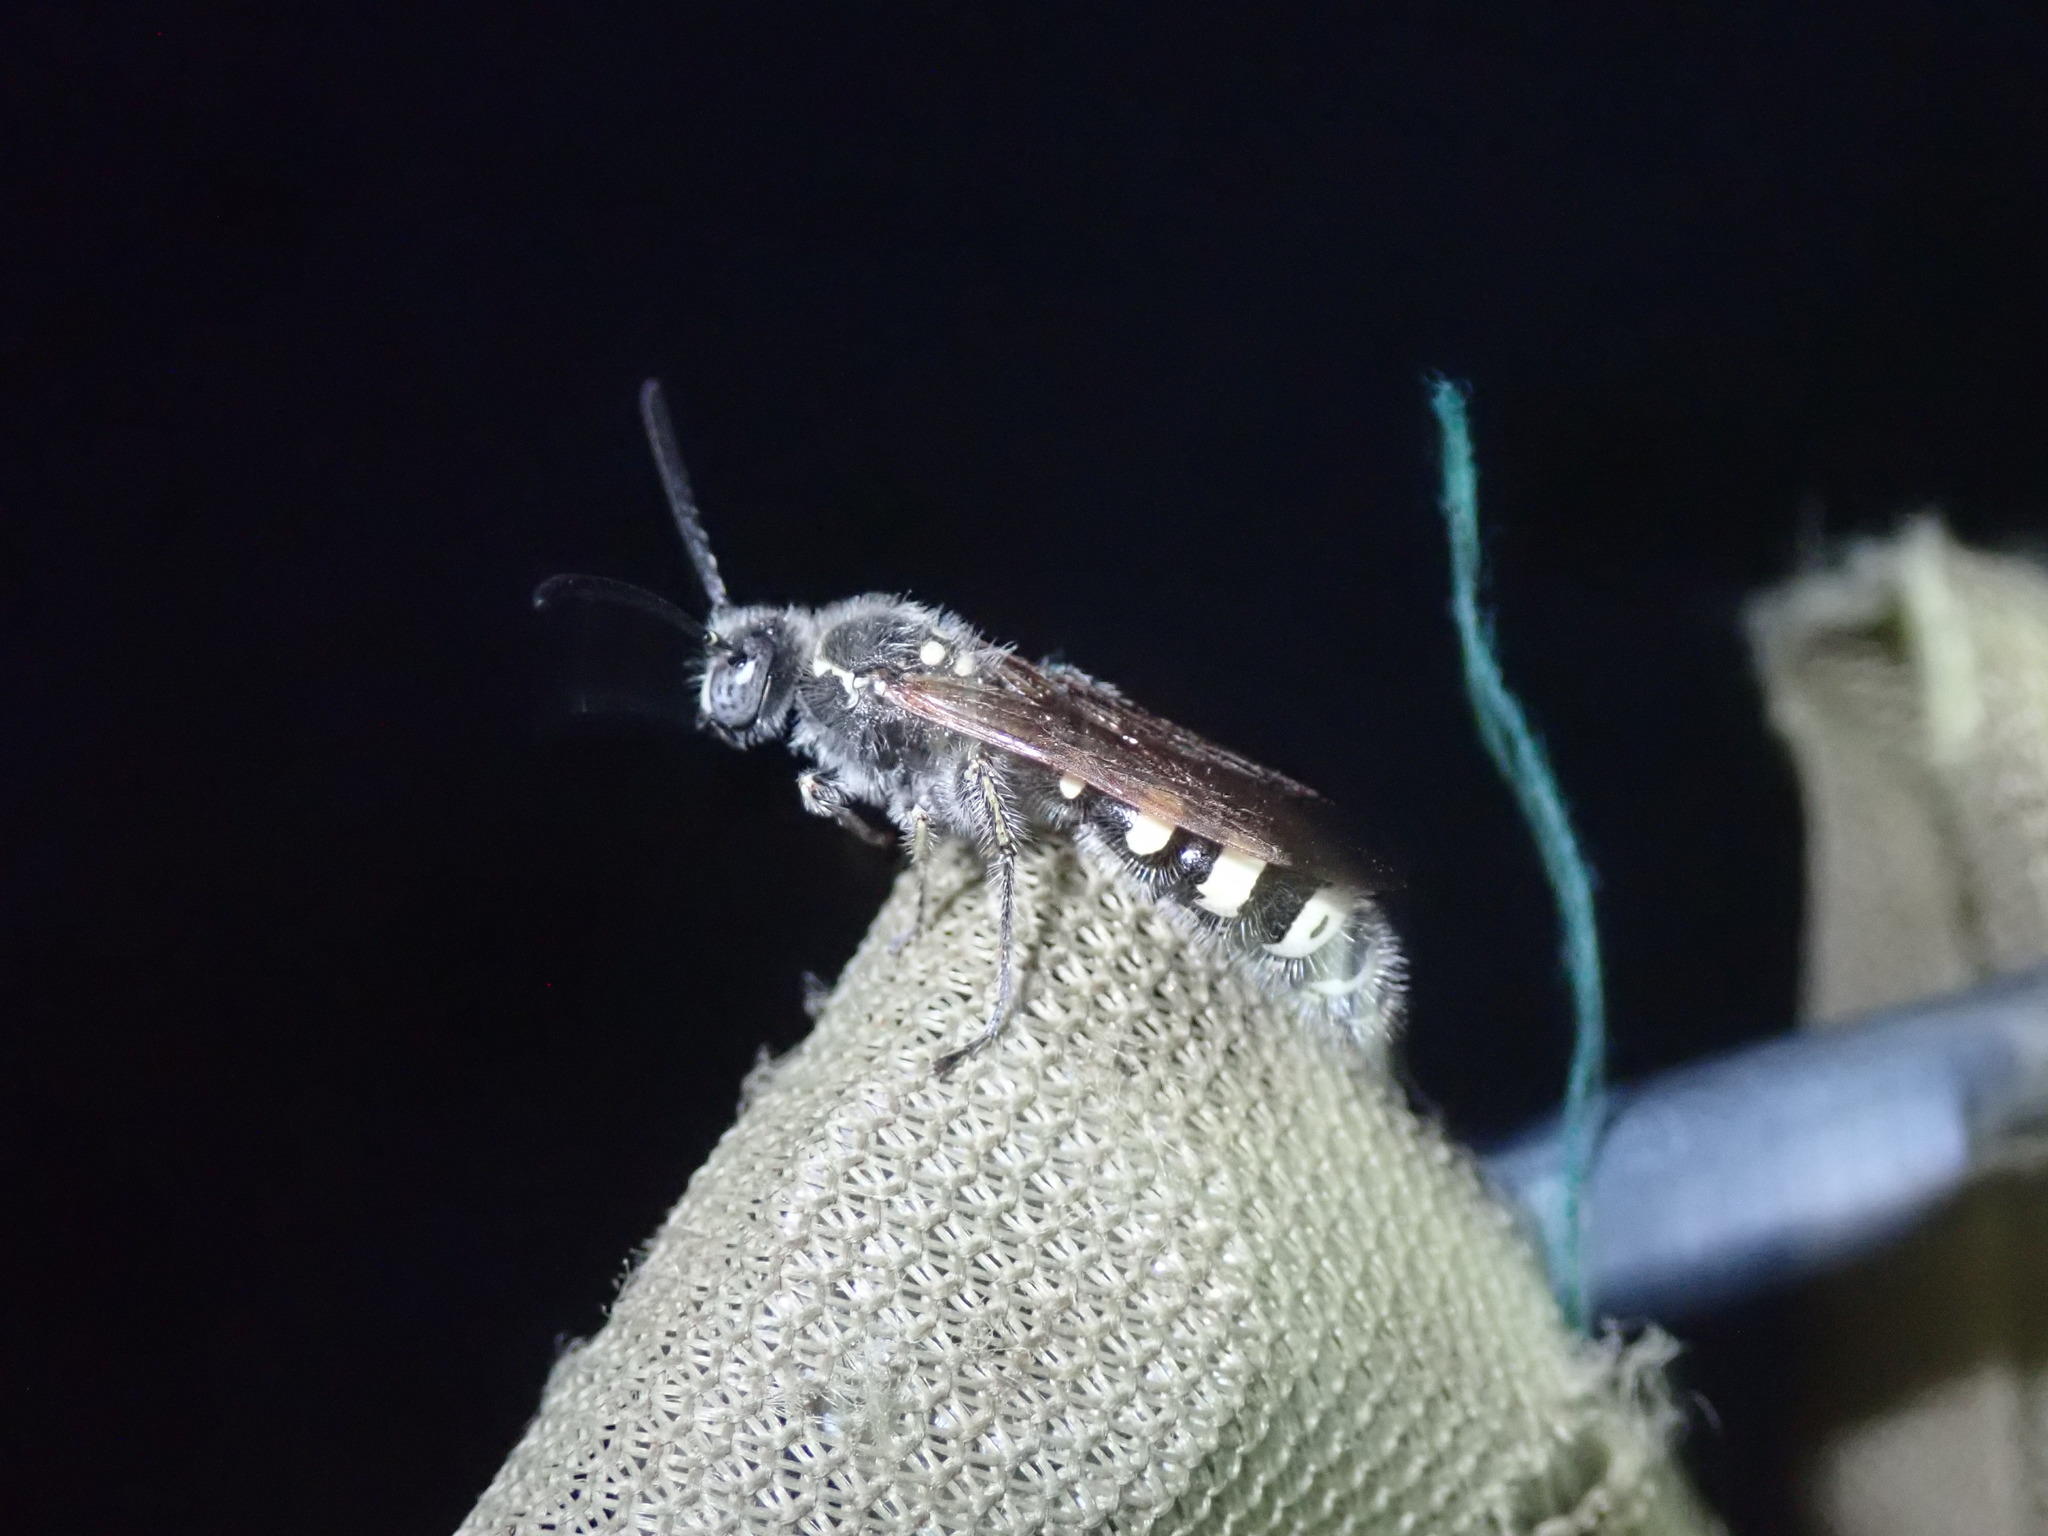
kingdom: Animalia
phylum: Arthropoda
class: Insecta
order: Hymenoptera
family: Vespidae
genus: Vespa
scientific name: Vespa sexmaculata
